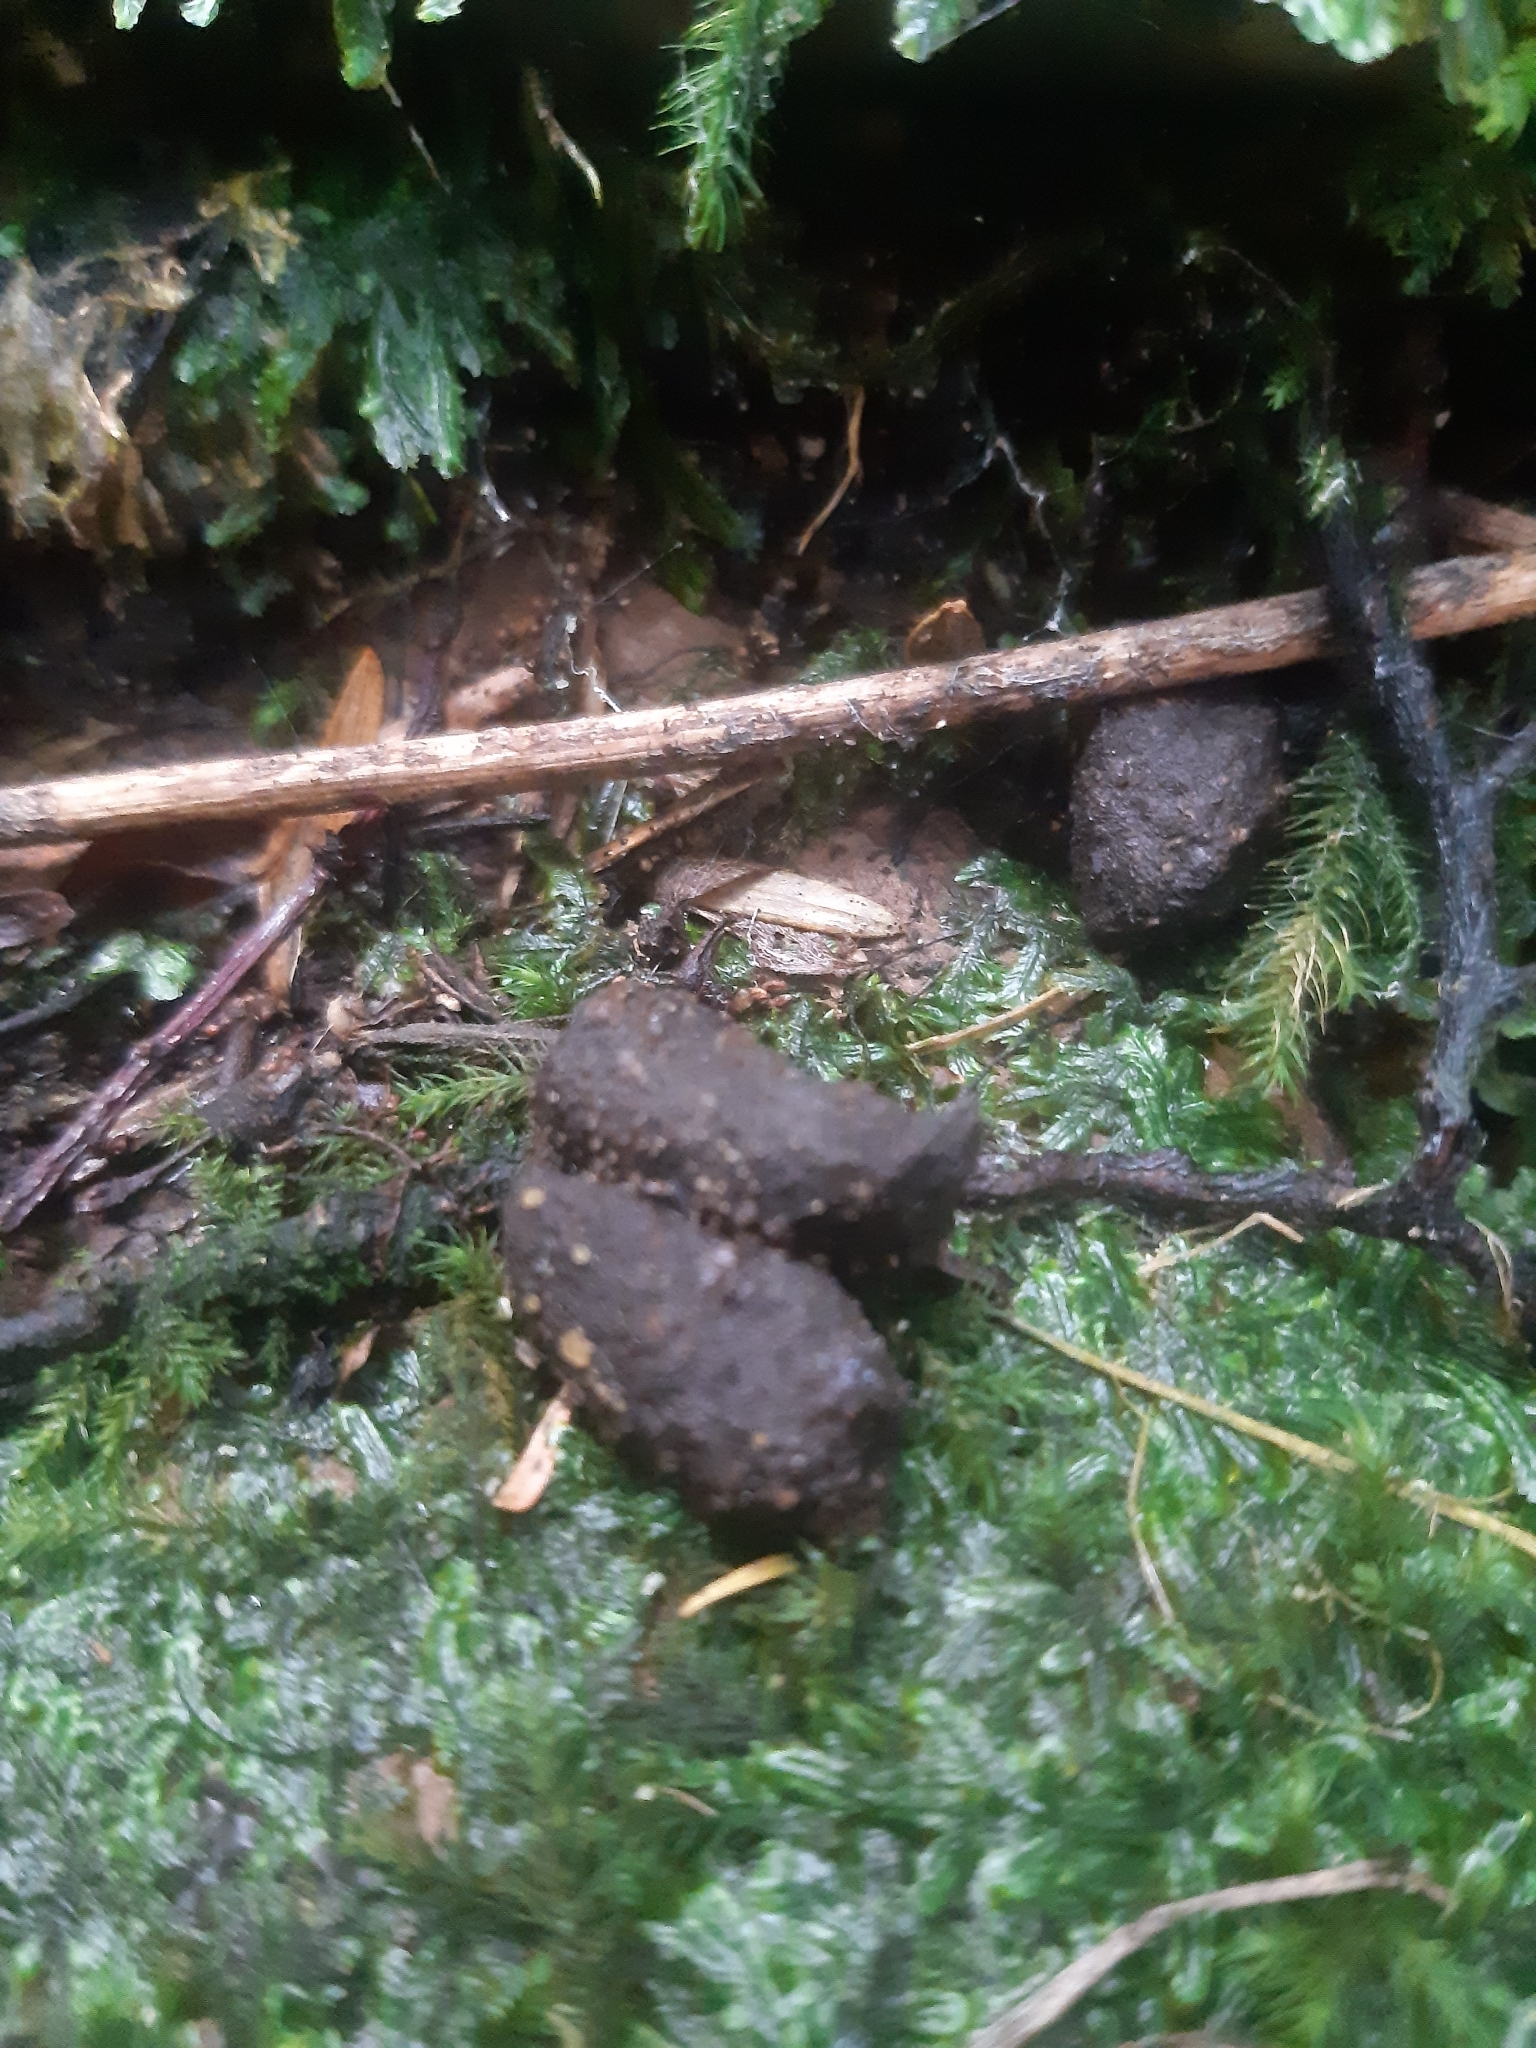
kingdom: Animalia
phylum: Chordata
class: Mammalia
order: Diprotodontia
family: Phalangeridae
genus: Trichosurus
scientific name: Trichosurus vulpecula
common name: Common brushtail
